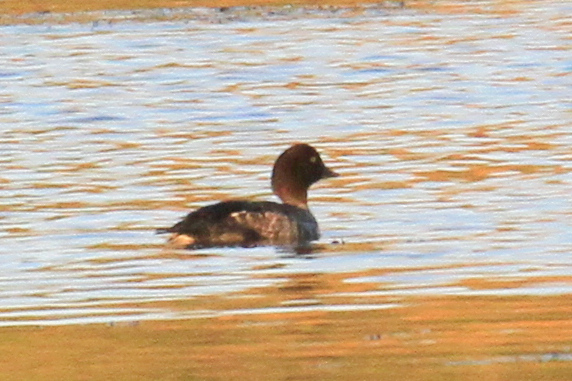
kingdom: Animalia
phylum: Chordata
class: Aves
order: Anseriformes
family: Anatidae
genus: Bucephala
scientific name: Bucephala clangula
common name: Common goldeneye
